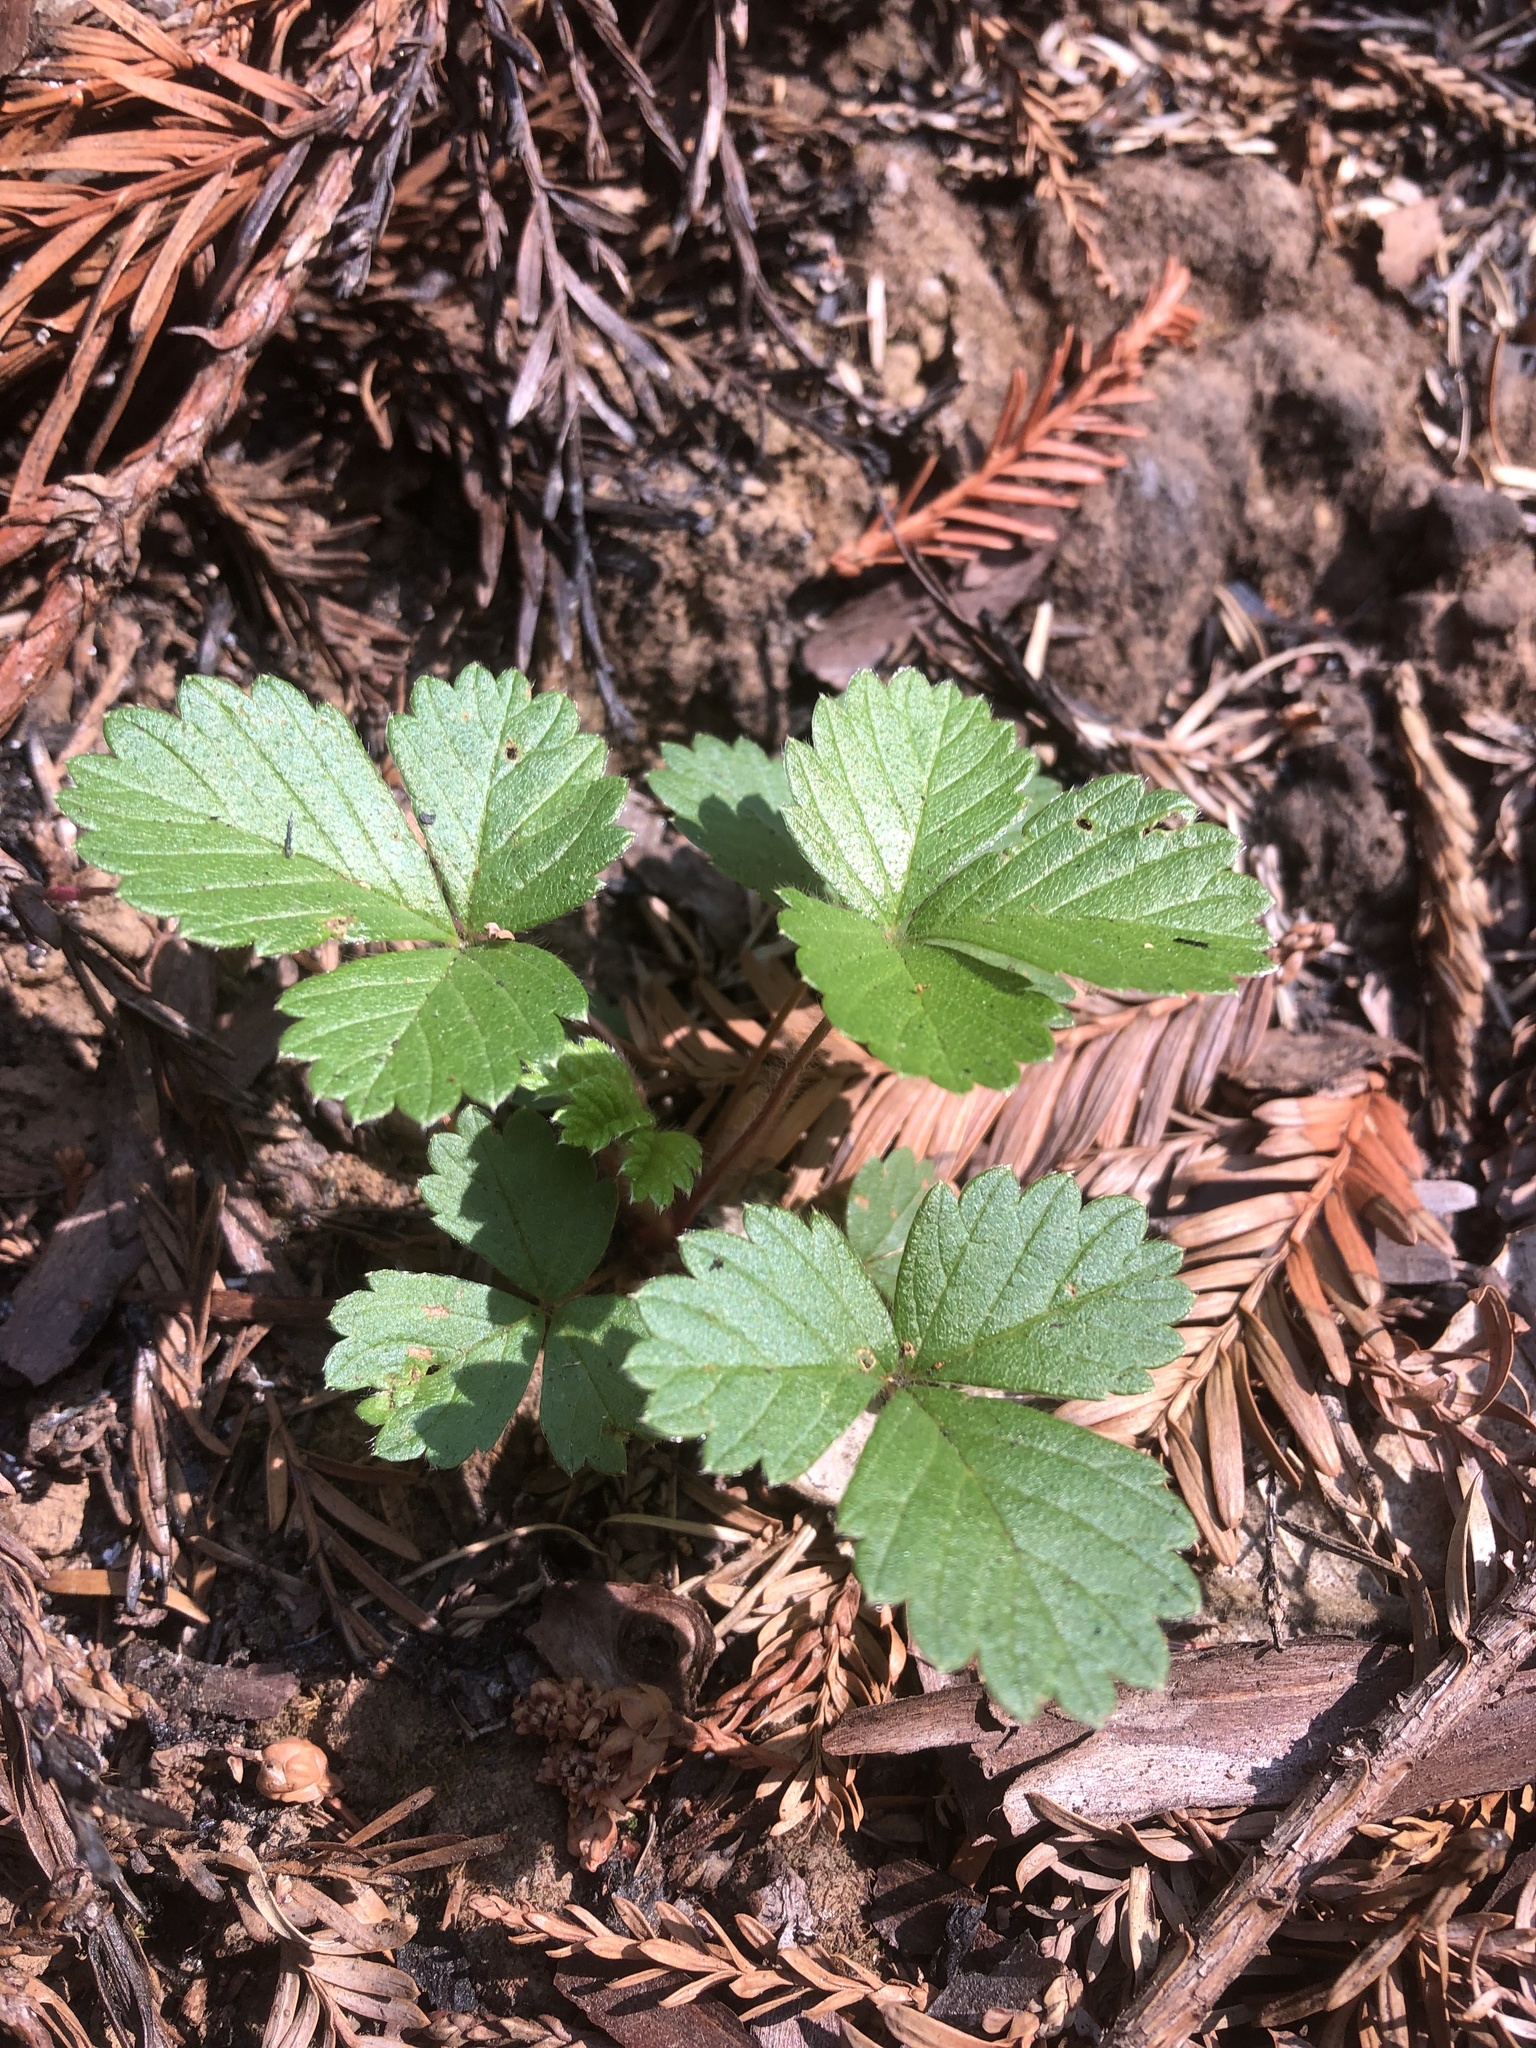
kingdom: Plantae
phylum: Tracheophyta
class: Magnoliopsida
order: Rosales
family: Rosaceae
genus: Fragaria
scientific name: Fragaria vesca
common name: Wild strawberry
